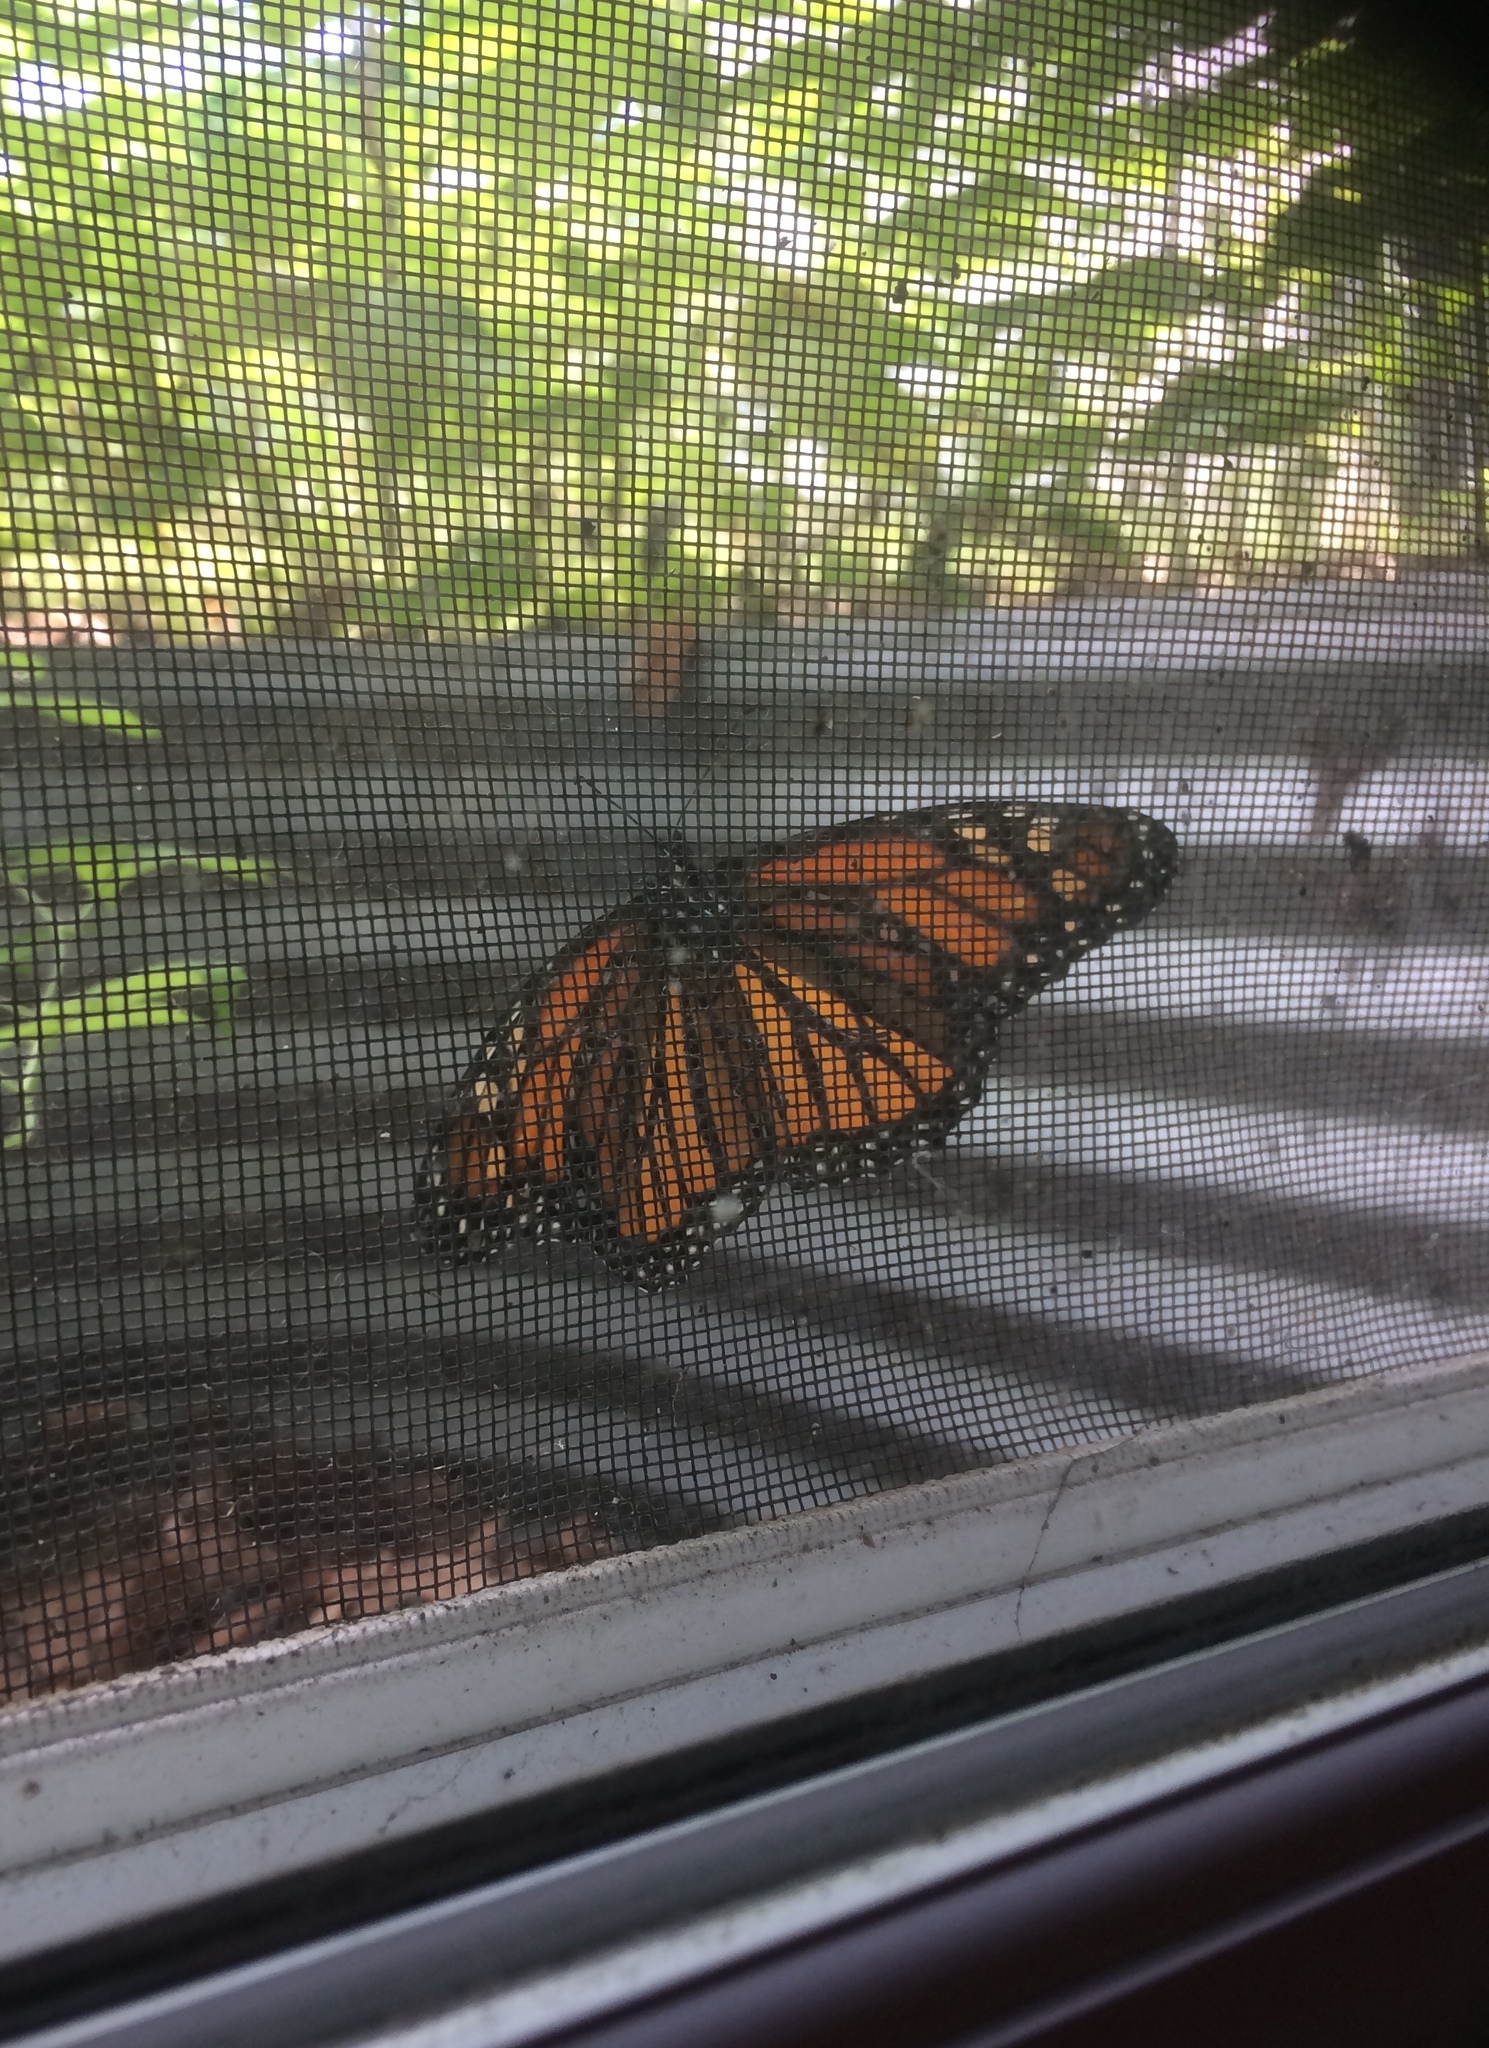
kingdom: Animalia
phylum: Arthropoda
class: Insecta
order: Lepidoptera
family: Nymphalidae
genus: Danaus
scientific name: Danaus plexippus
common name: Monarch
